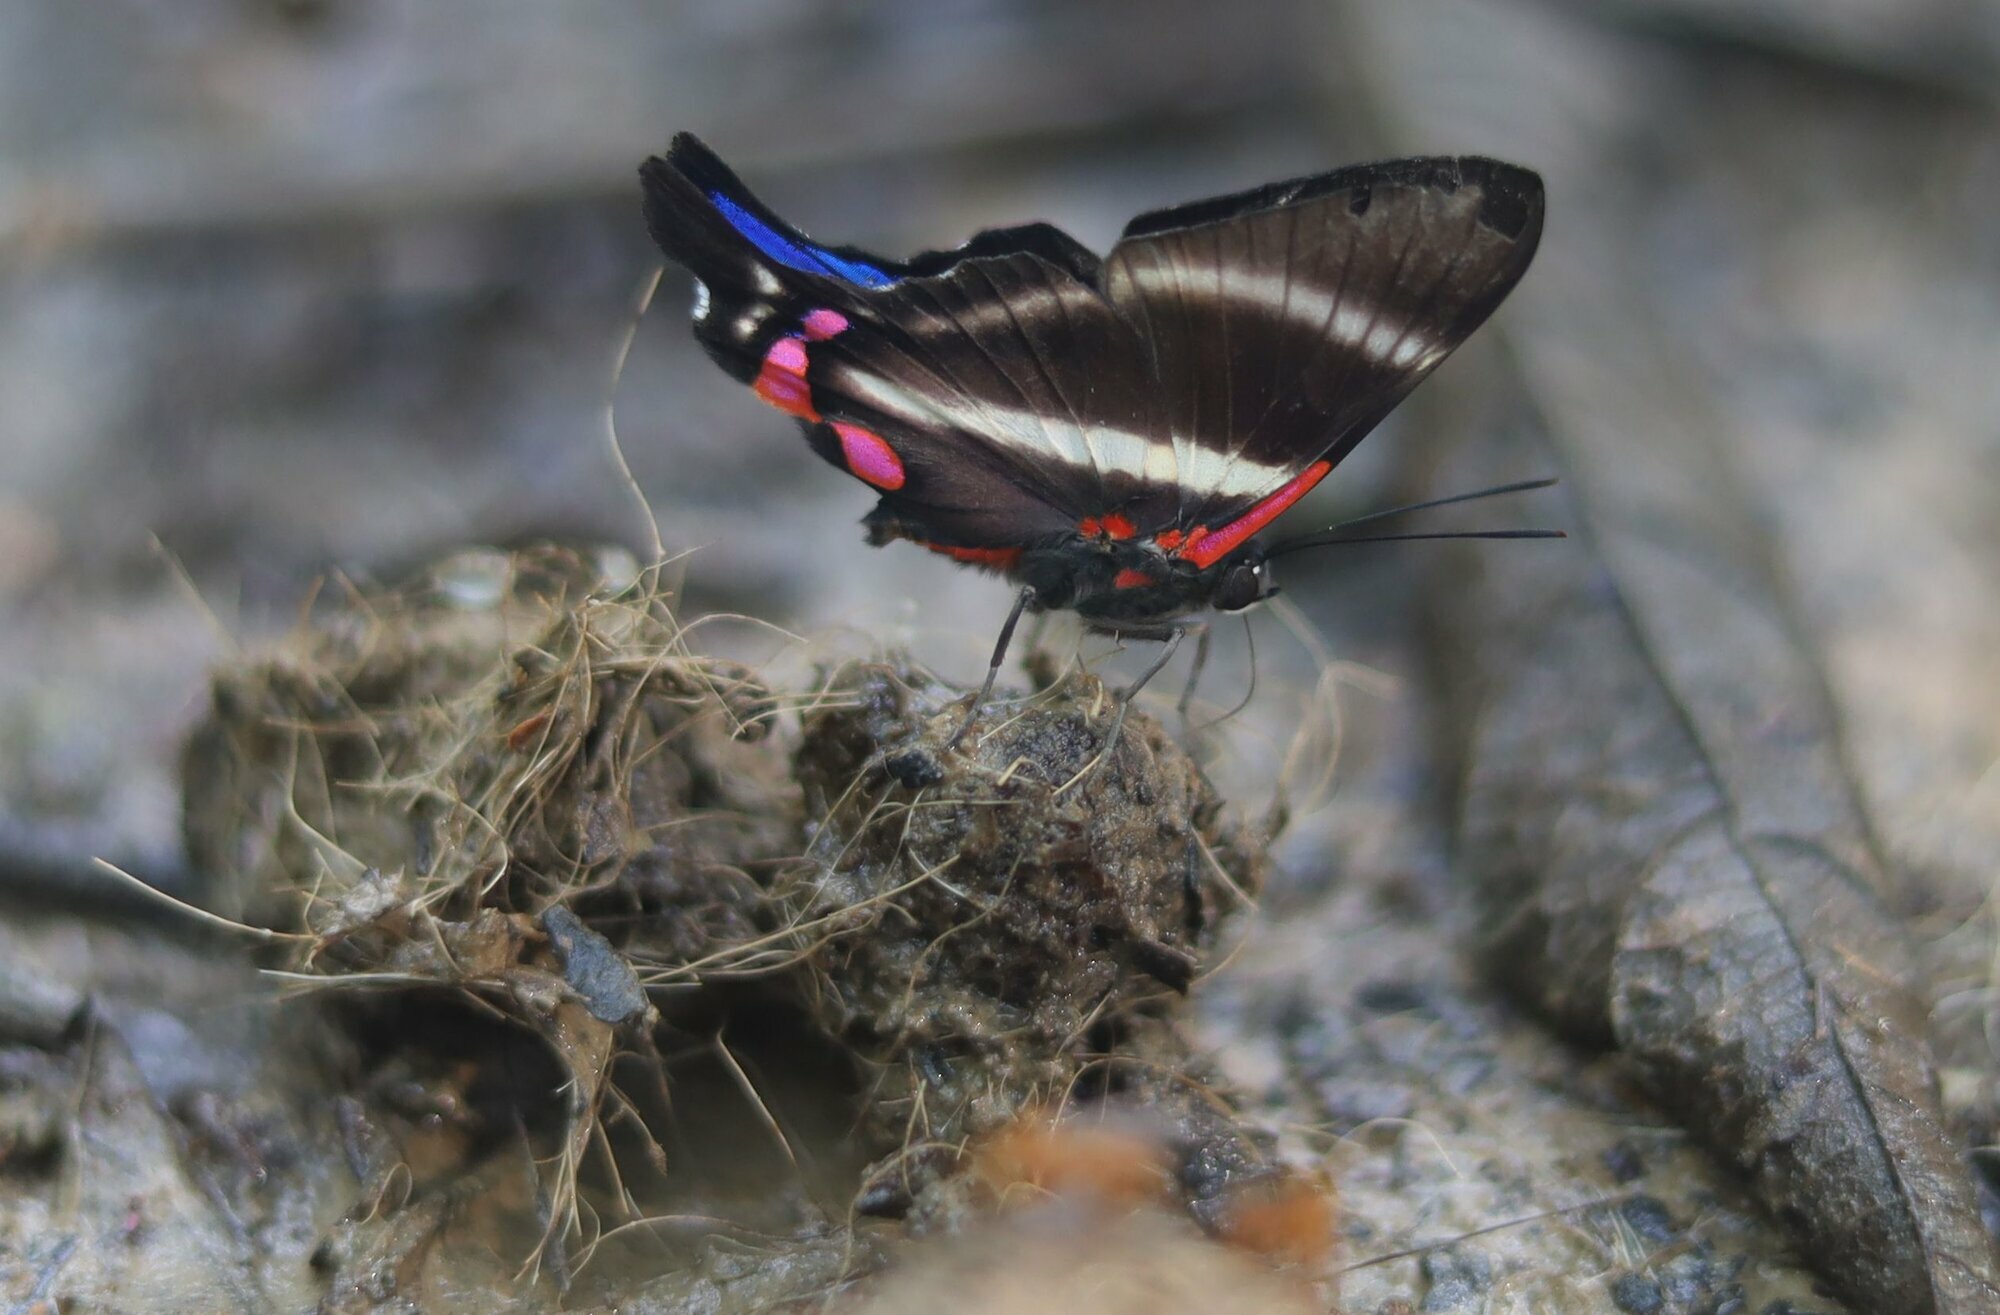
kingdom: Animalia
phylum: Arthropoda
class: Insecta
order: Lepidoptera
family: Riodinidae
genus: Rhetus
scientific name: Rhetus periander
